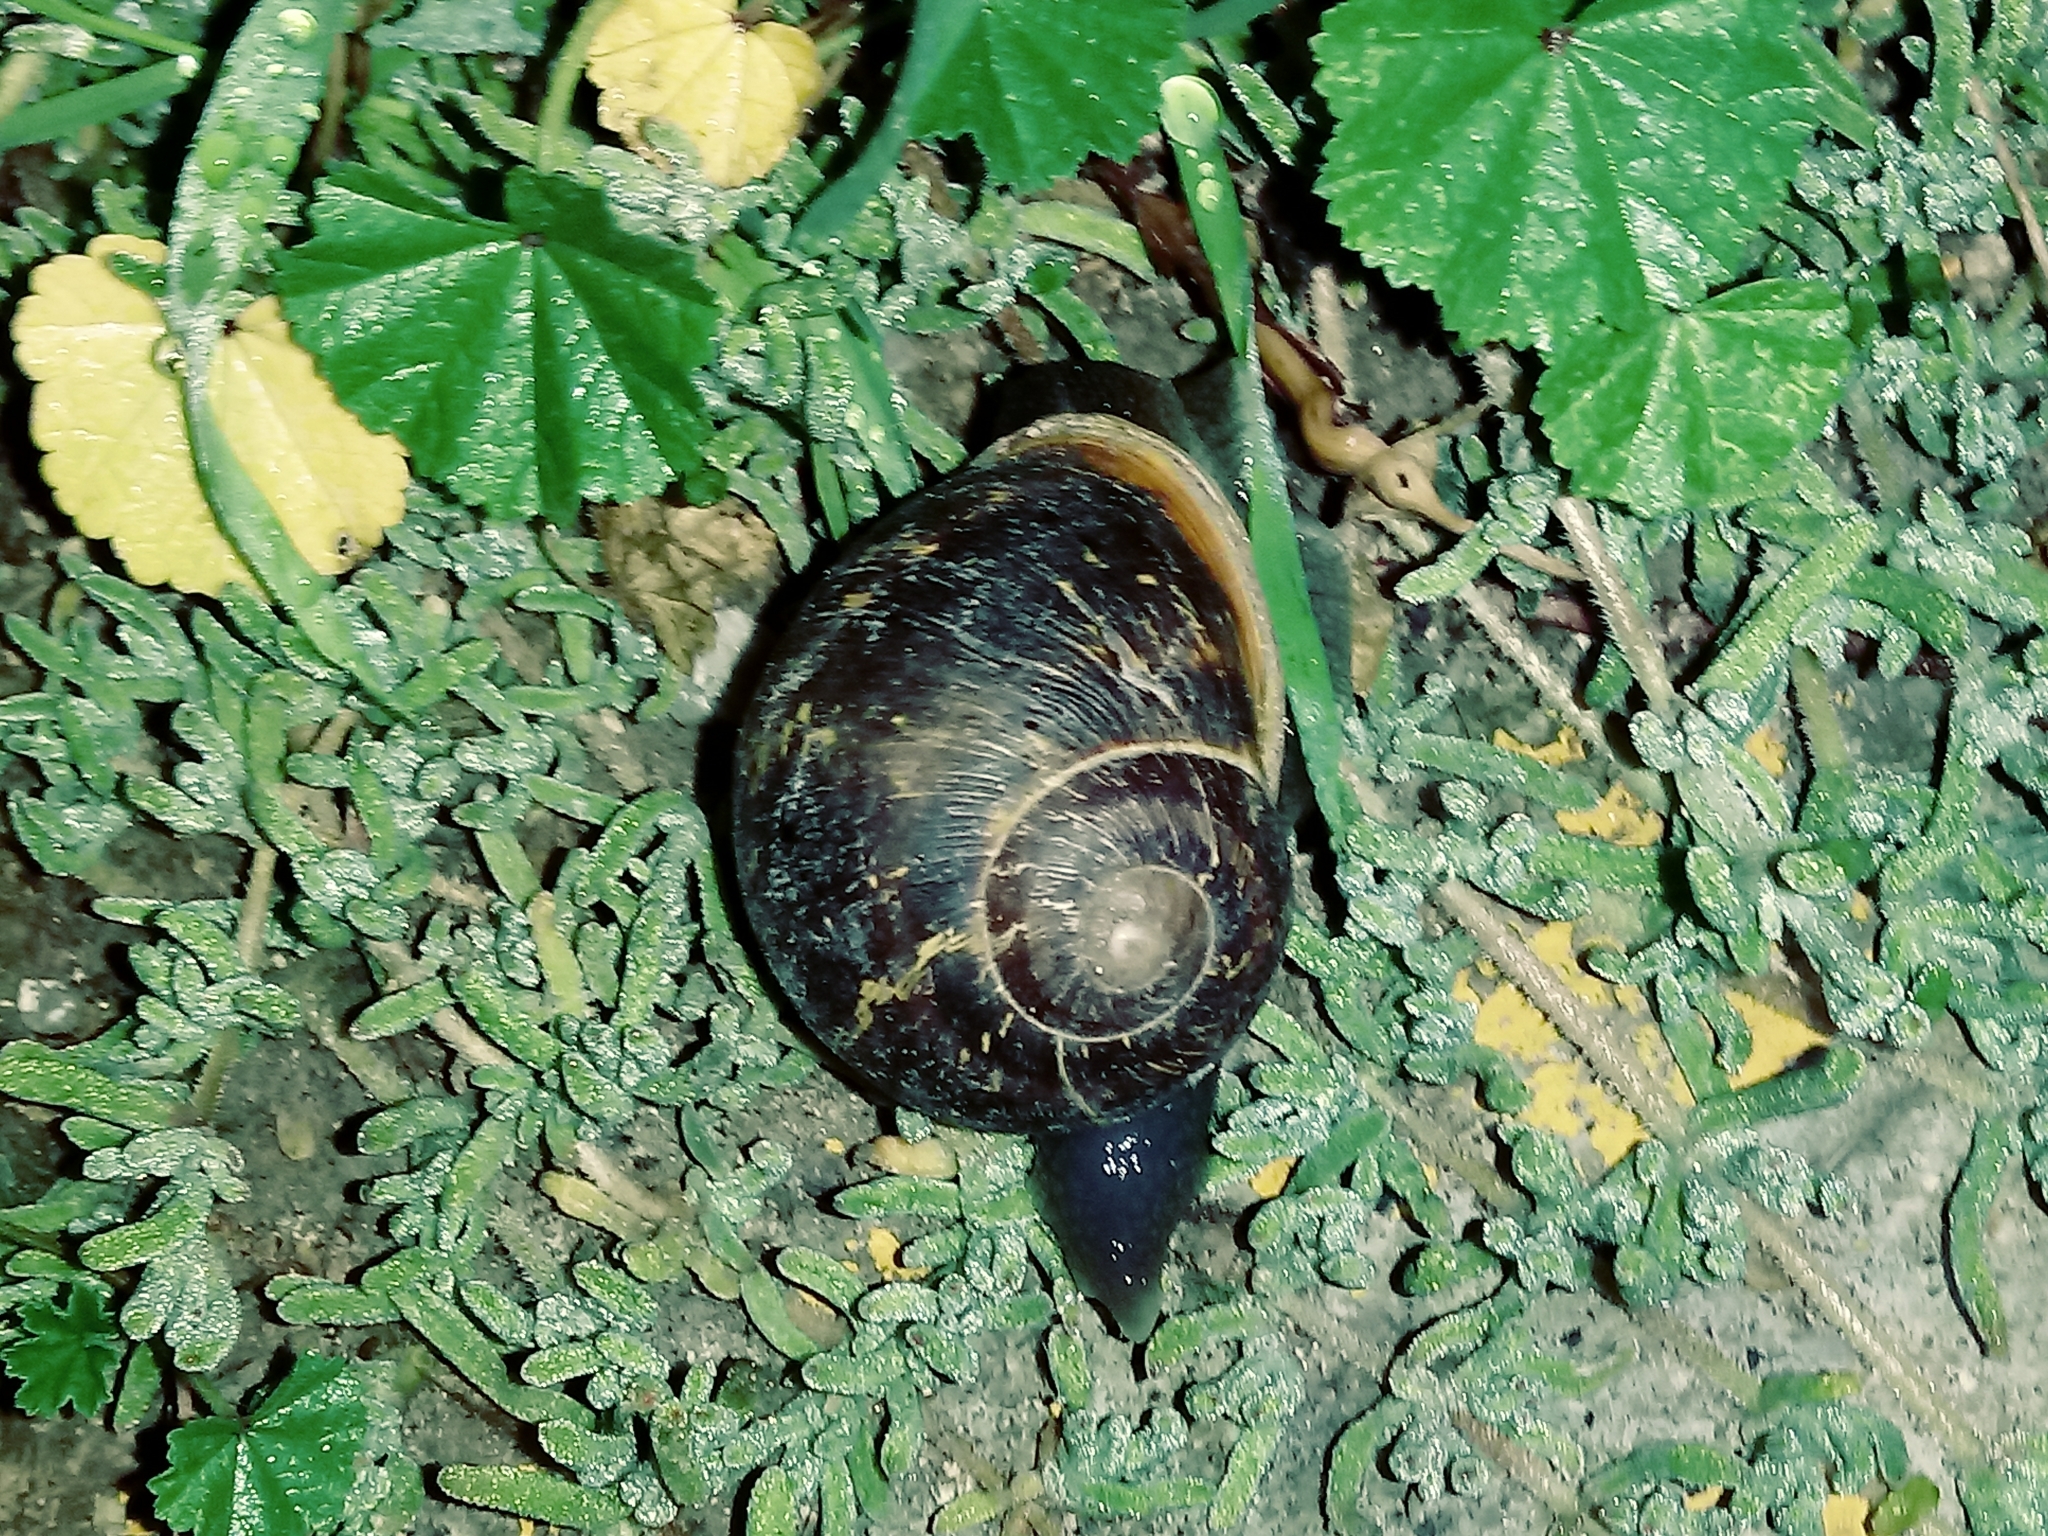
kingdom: Animalia
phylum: Mollusca
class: Gastropoda
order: Stylommatophora
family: Helicidae
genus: Cornu
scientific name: Cornu aspersum
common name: Brown garden snail
